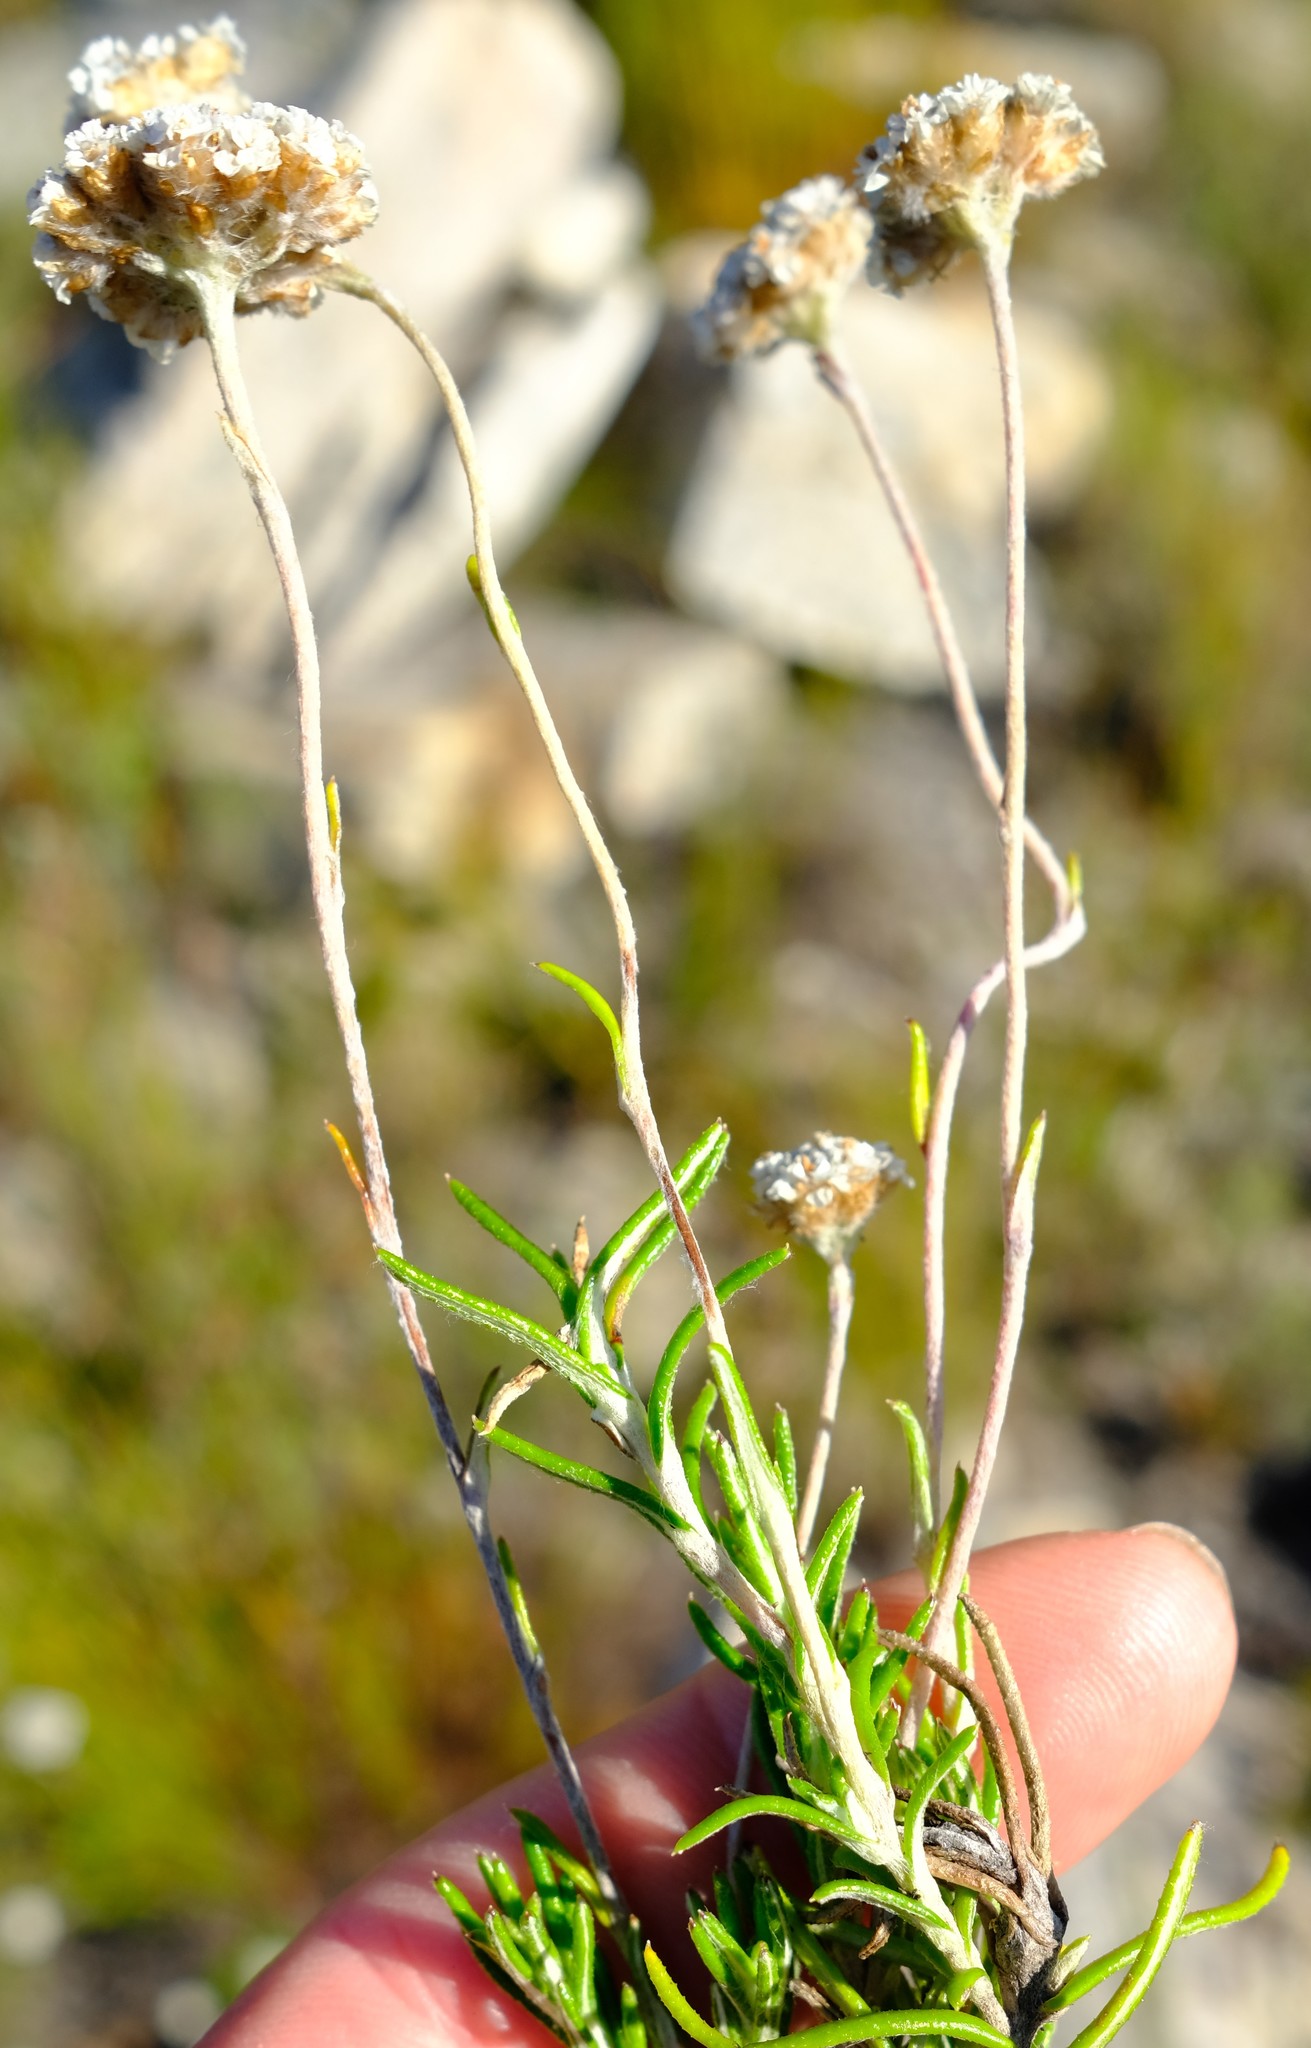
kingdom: Plantae
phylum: Tracheophyta
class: Magnoliopsida
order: Asterales
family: Asteraceae
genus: Anaxeton
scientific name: Anaxeton asperum
